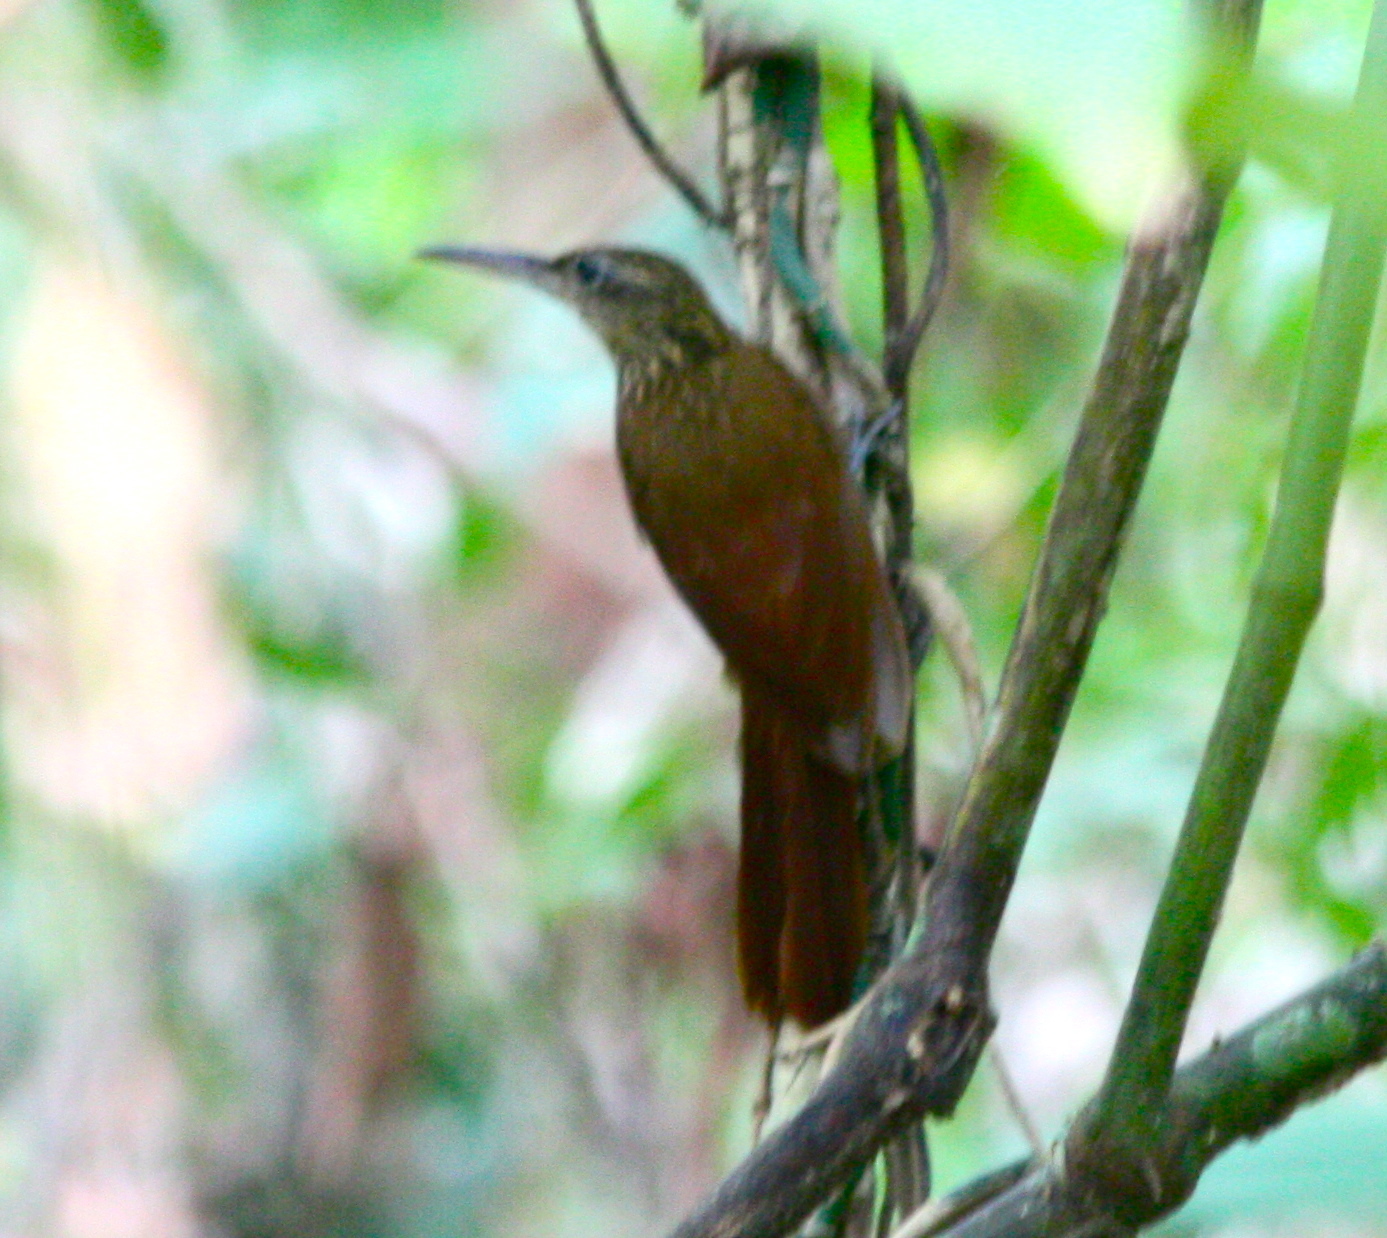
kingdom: Animalia
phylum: Chordata
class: Aves
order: Passeriformes
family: Furnariidae
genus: Xiphorhynchus
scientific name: Xiphorhynchus susurrans
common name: Cocoa woodcreeper
